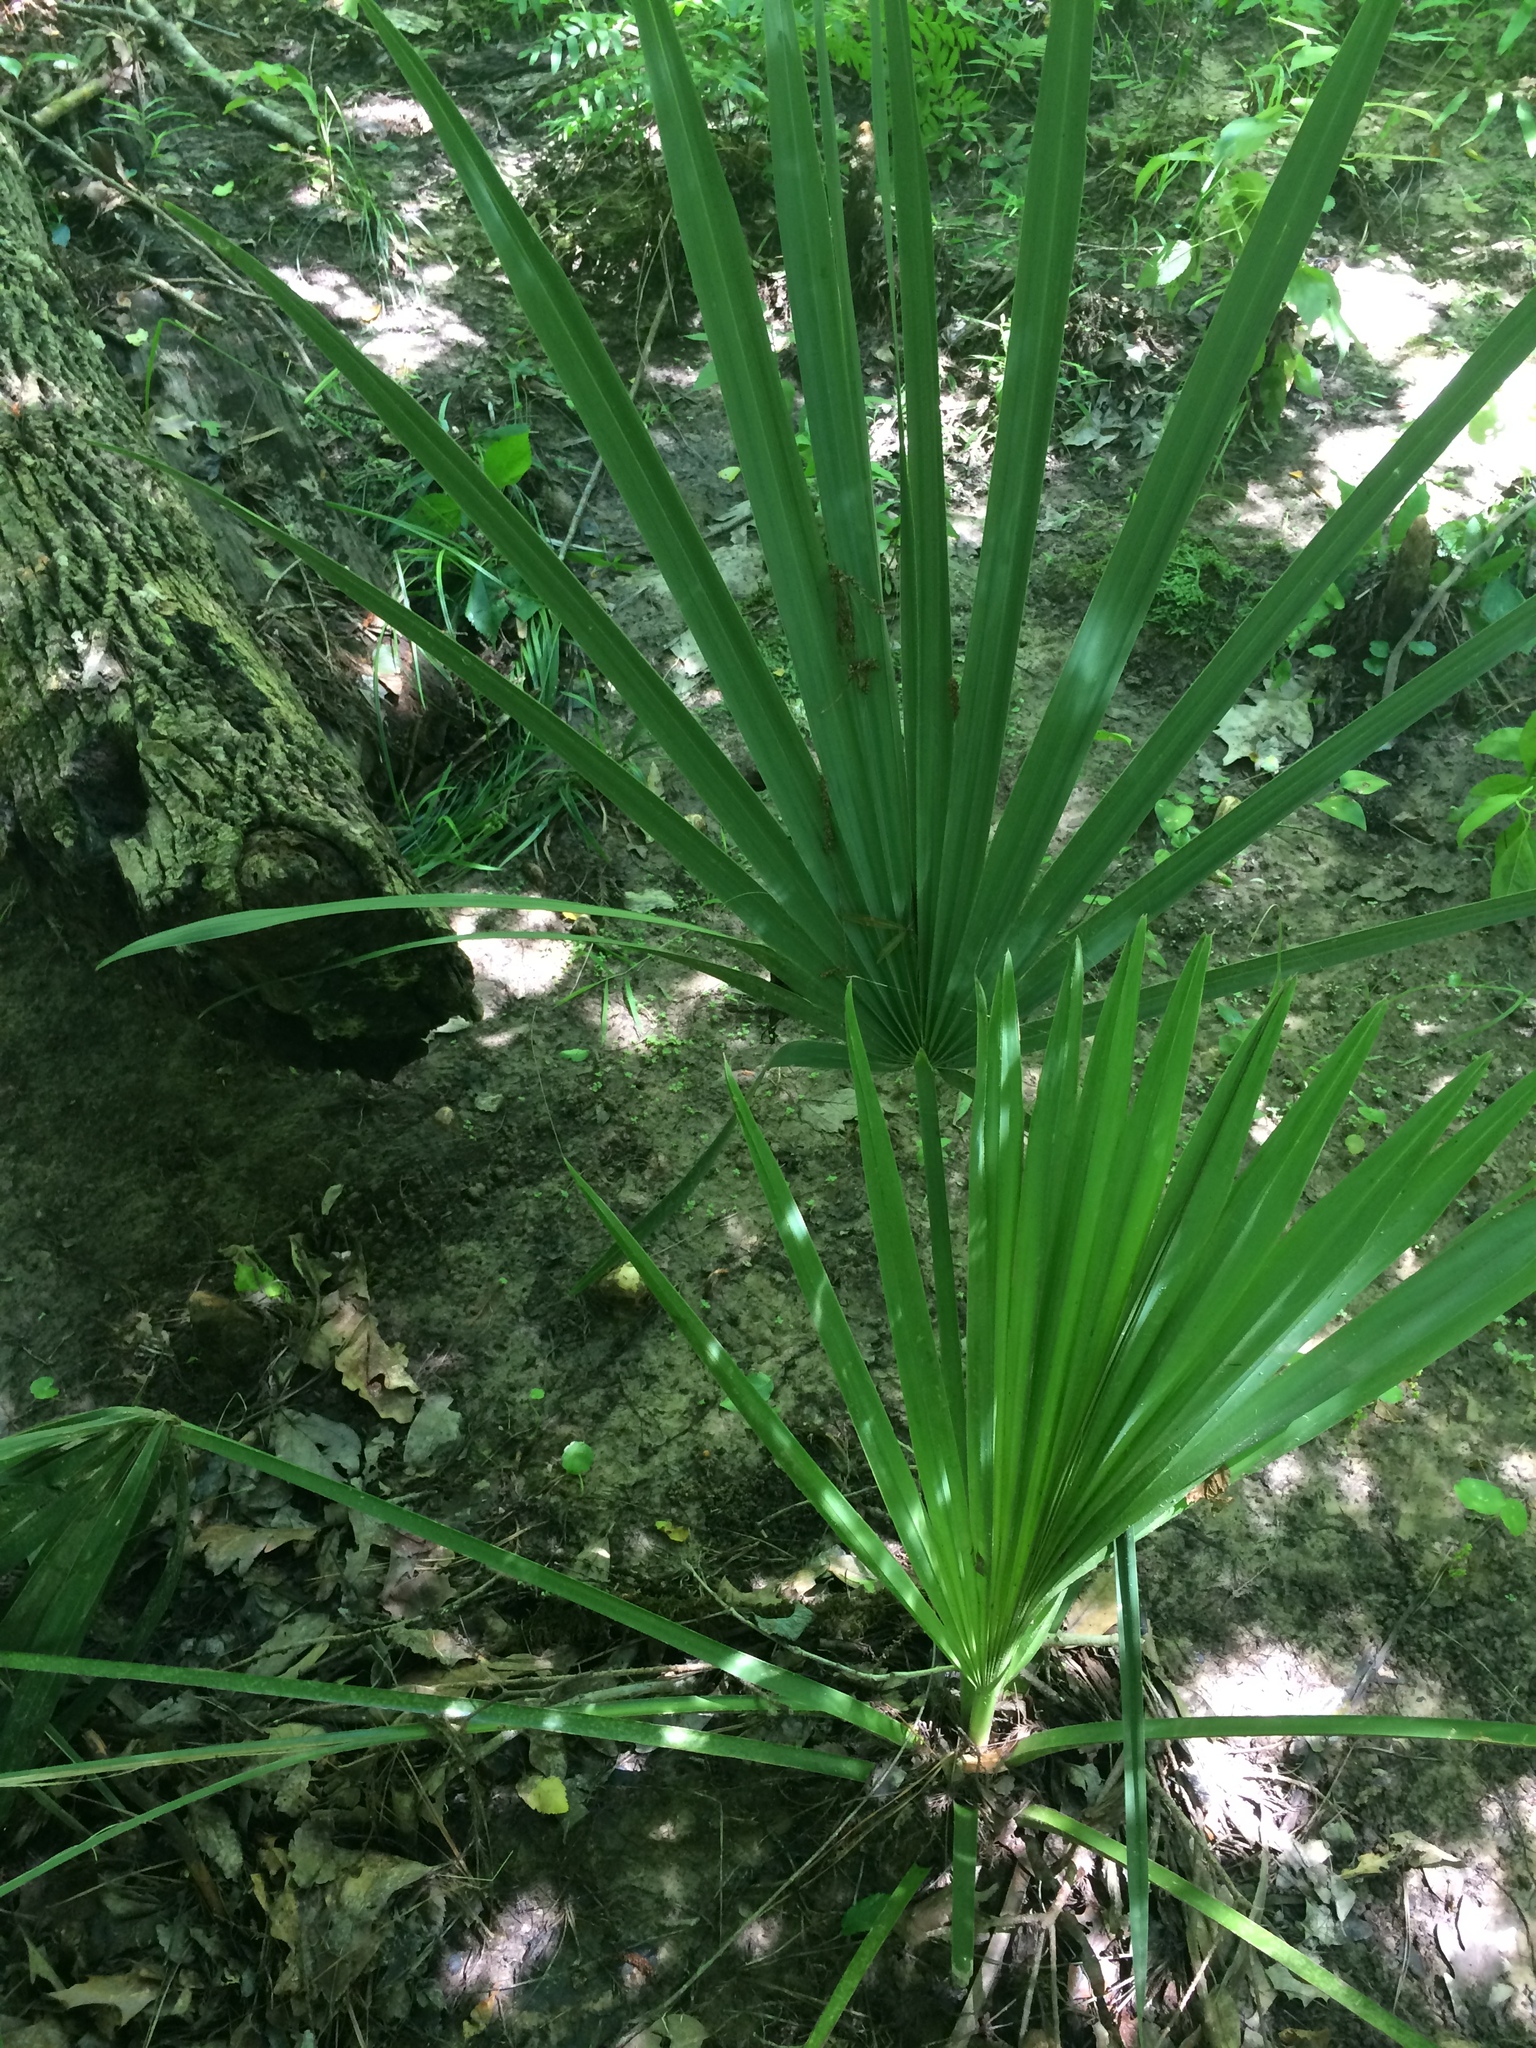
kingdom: Plantae
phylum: Tracheophyta
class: Liliopsida
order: Arecales
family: Arecaceae
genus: Sabal
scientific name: Sabal minor
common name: Dwarf palmetto
